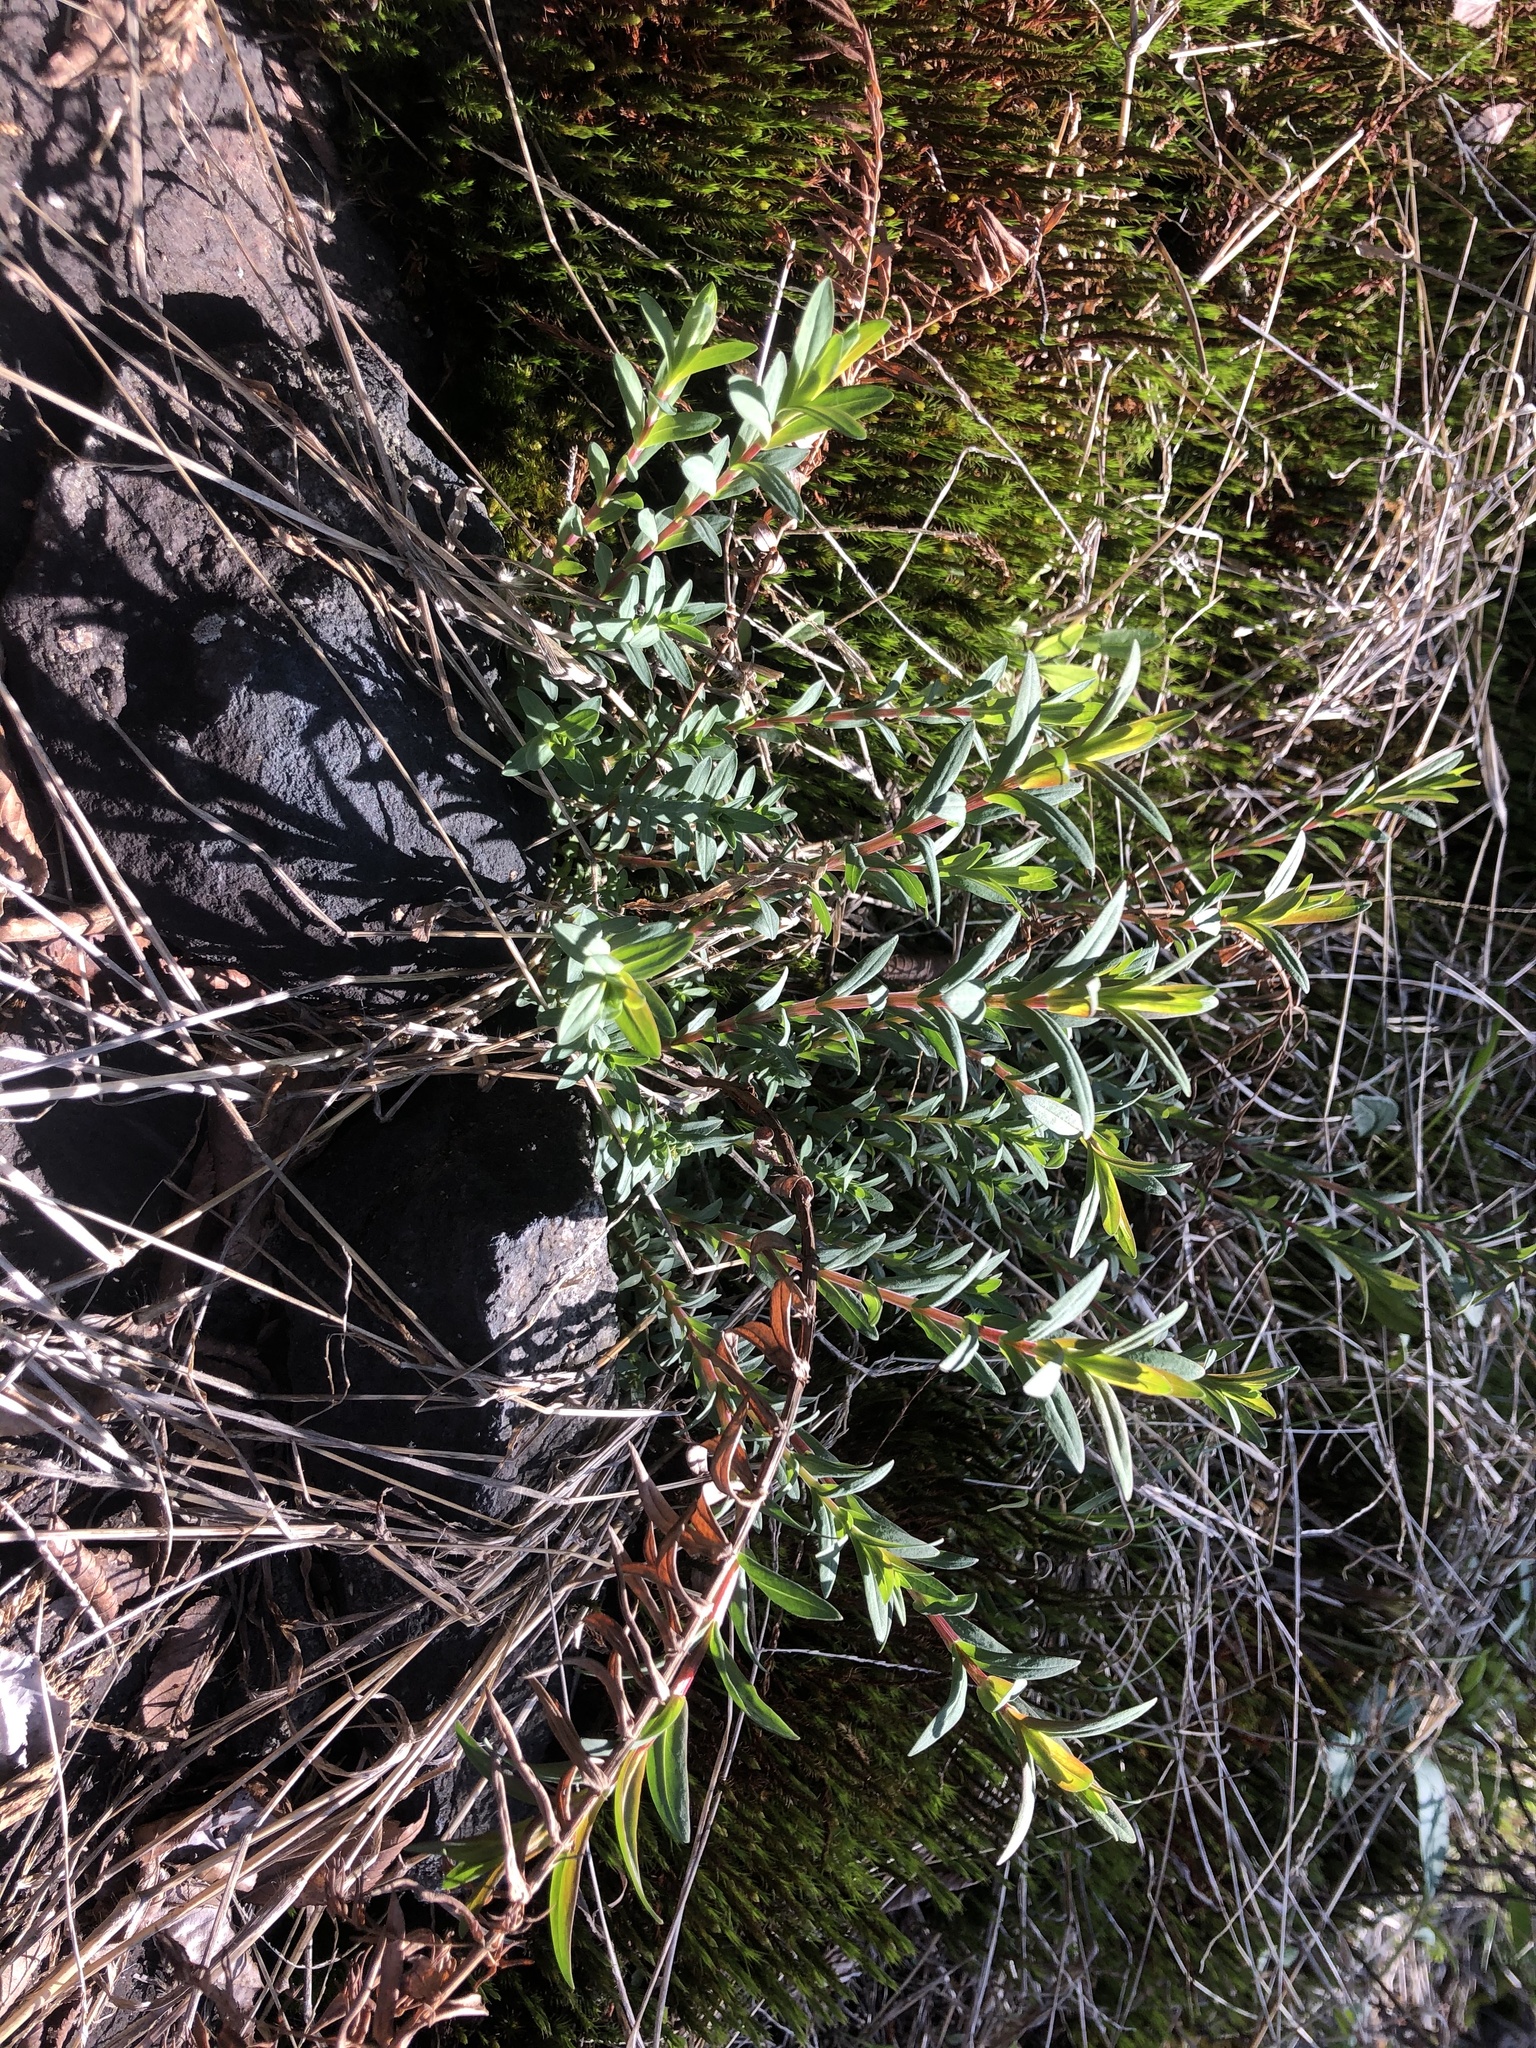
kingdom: Plantae
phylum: Tracheophyta
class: Magnoliopsida
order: Malpighiales
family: Hypericaceae
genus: Hypericum
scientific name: Hypericum radfordiorum
